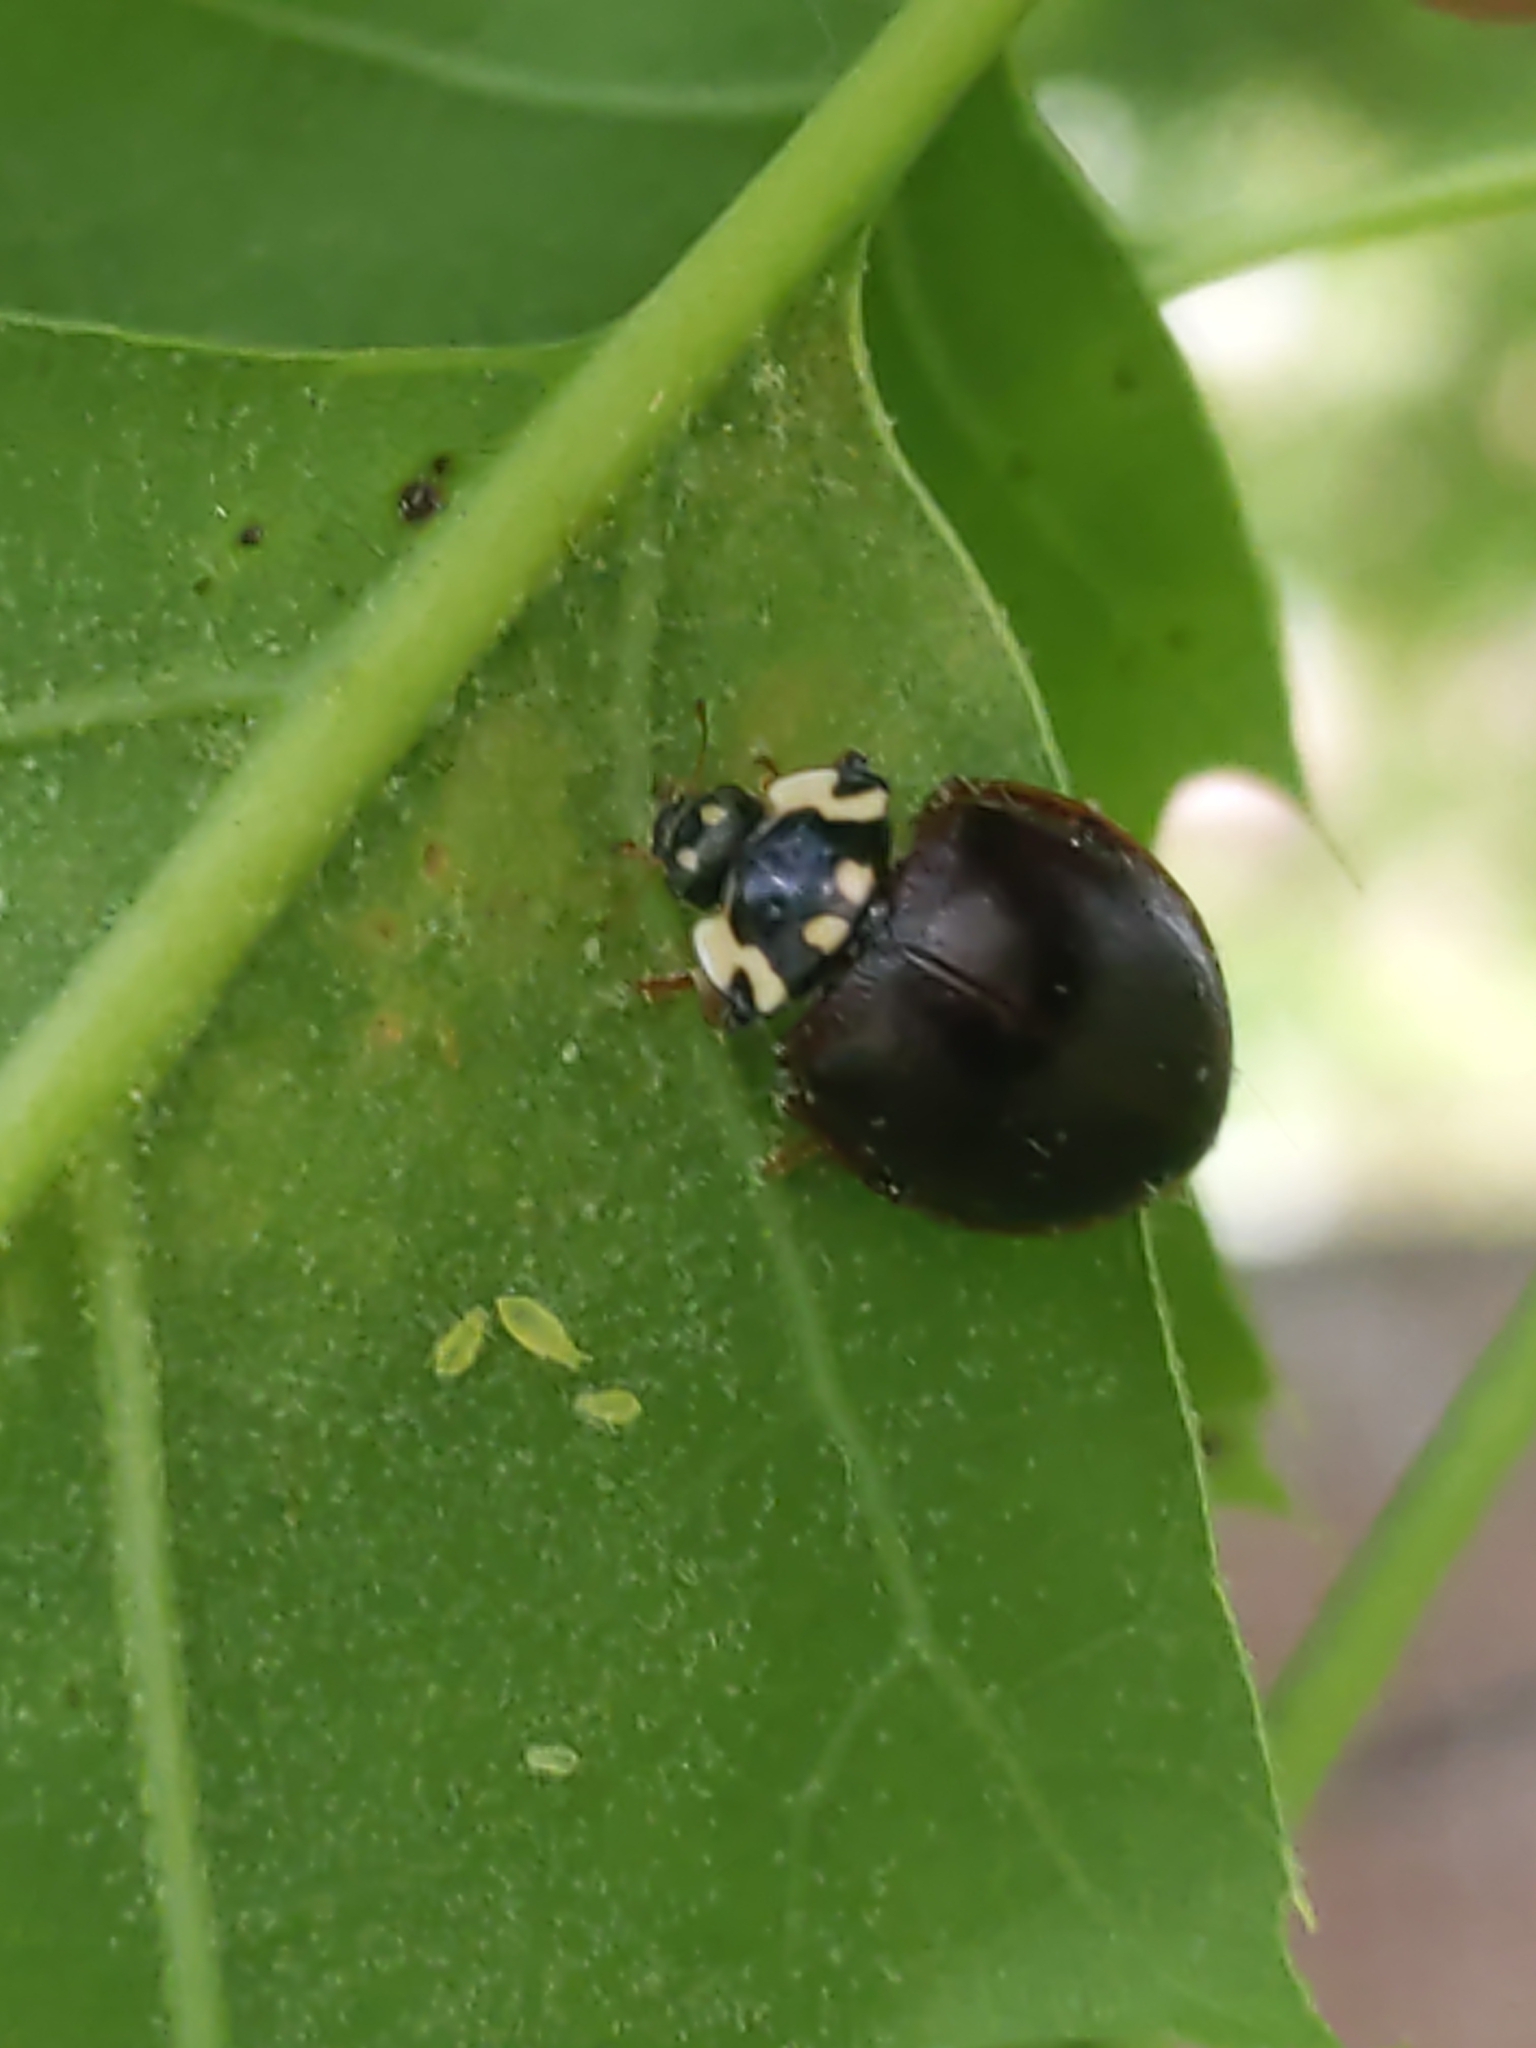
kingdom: Animalia
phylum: Arthropoda
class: Insecta
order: Coleoptera
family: Coccinellidae
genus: Anatis
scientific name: Anatis labiculata
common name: Fifteen-spotted lady beetle
